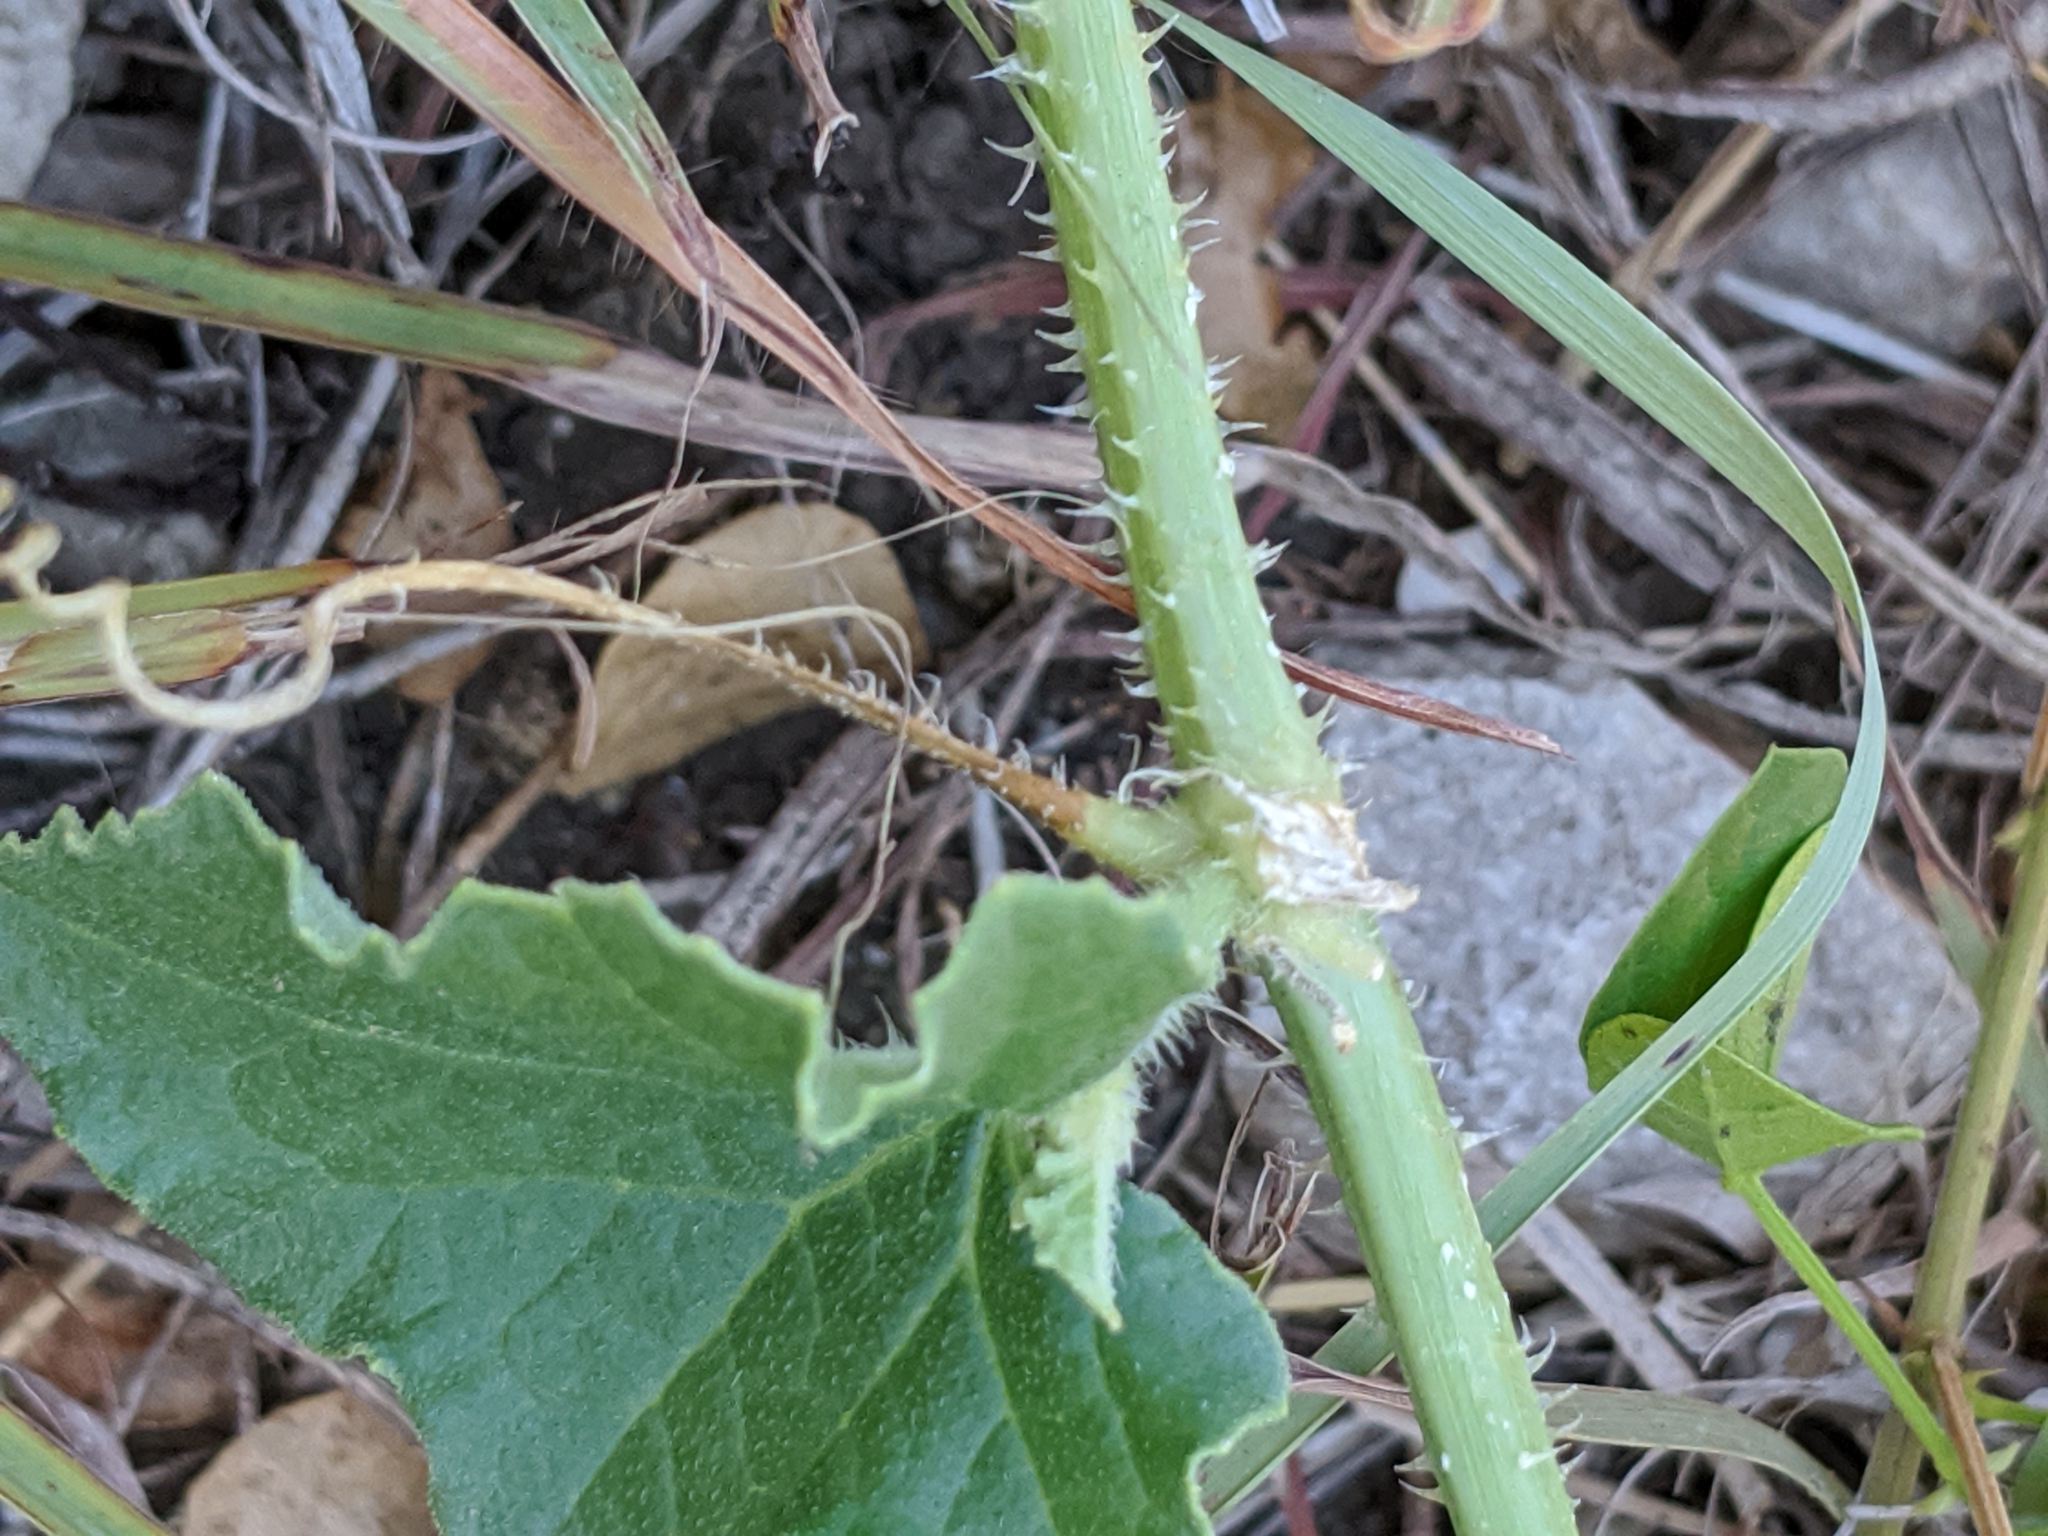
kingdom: Plantae
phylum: Tracheophyta
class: Magnoliopsida
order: Cucurbitales
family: Cucurbitaceae
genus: Cucumis
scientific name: Cucumis melo
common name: Melon
